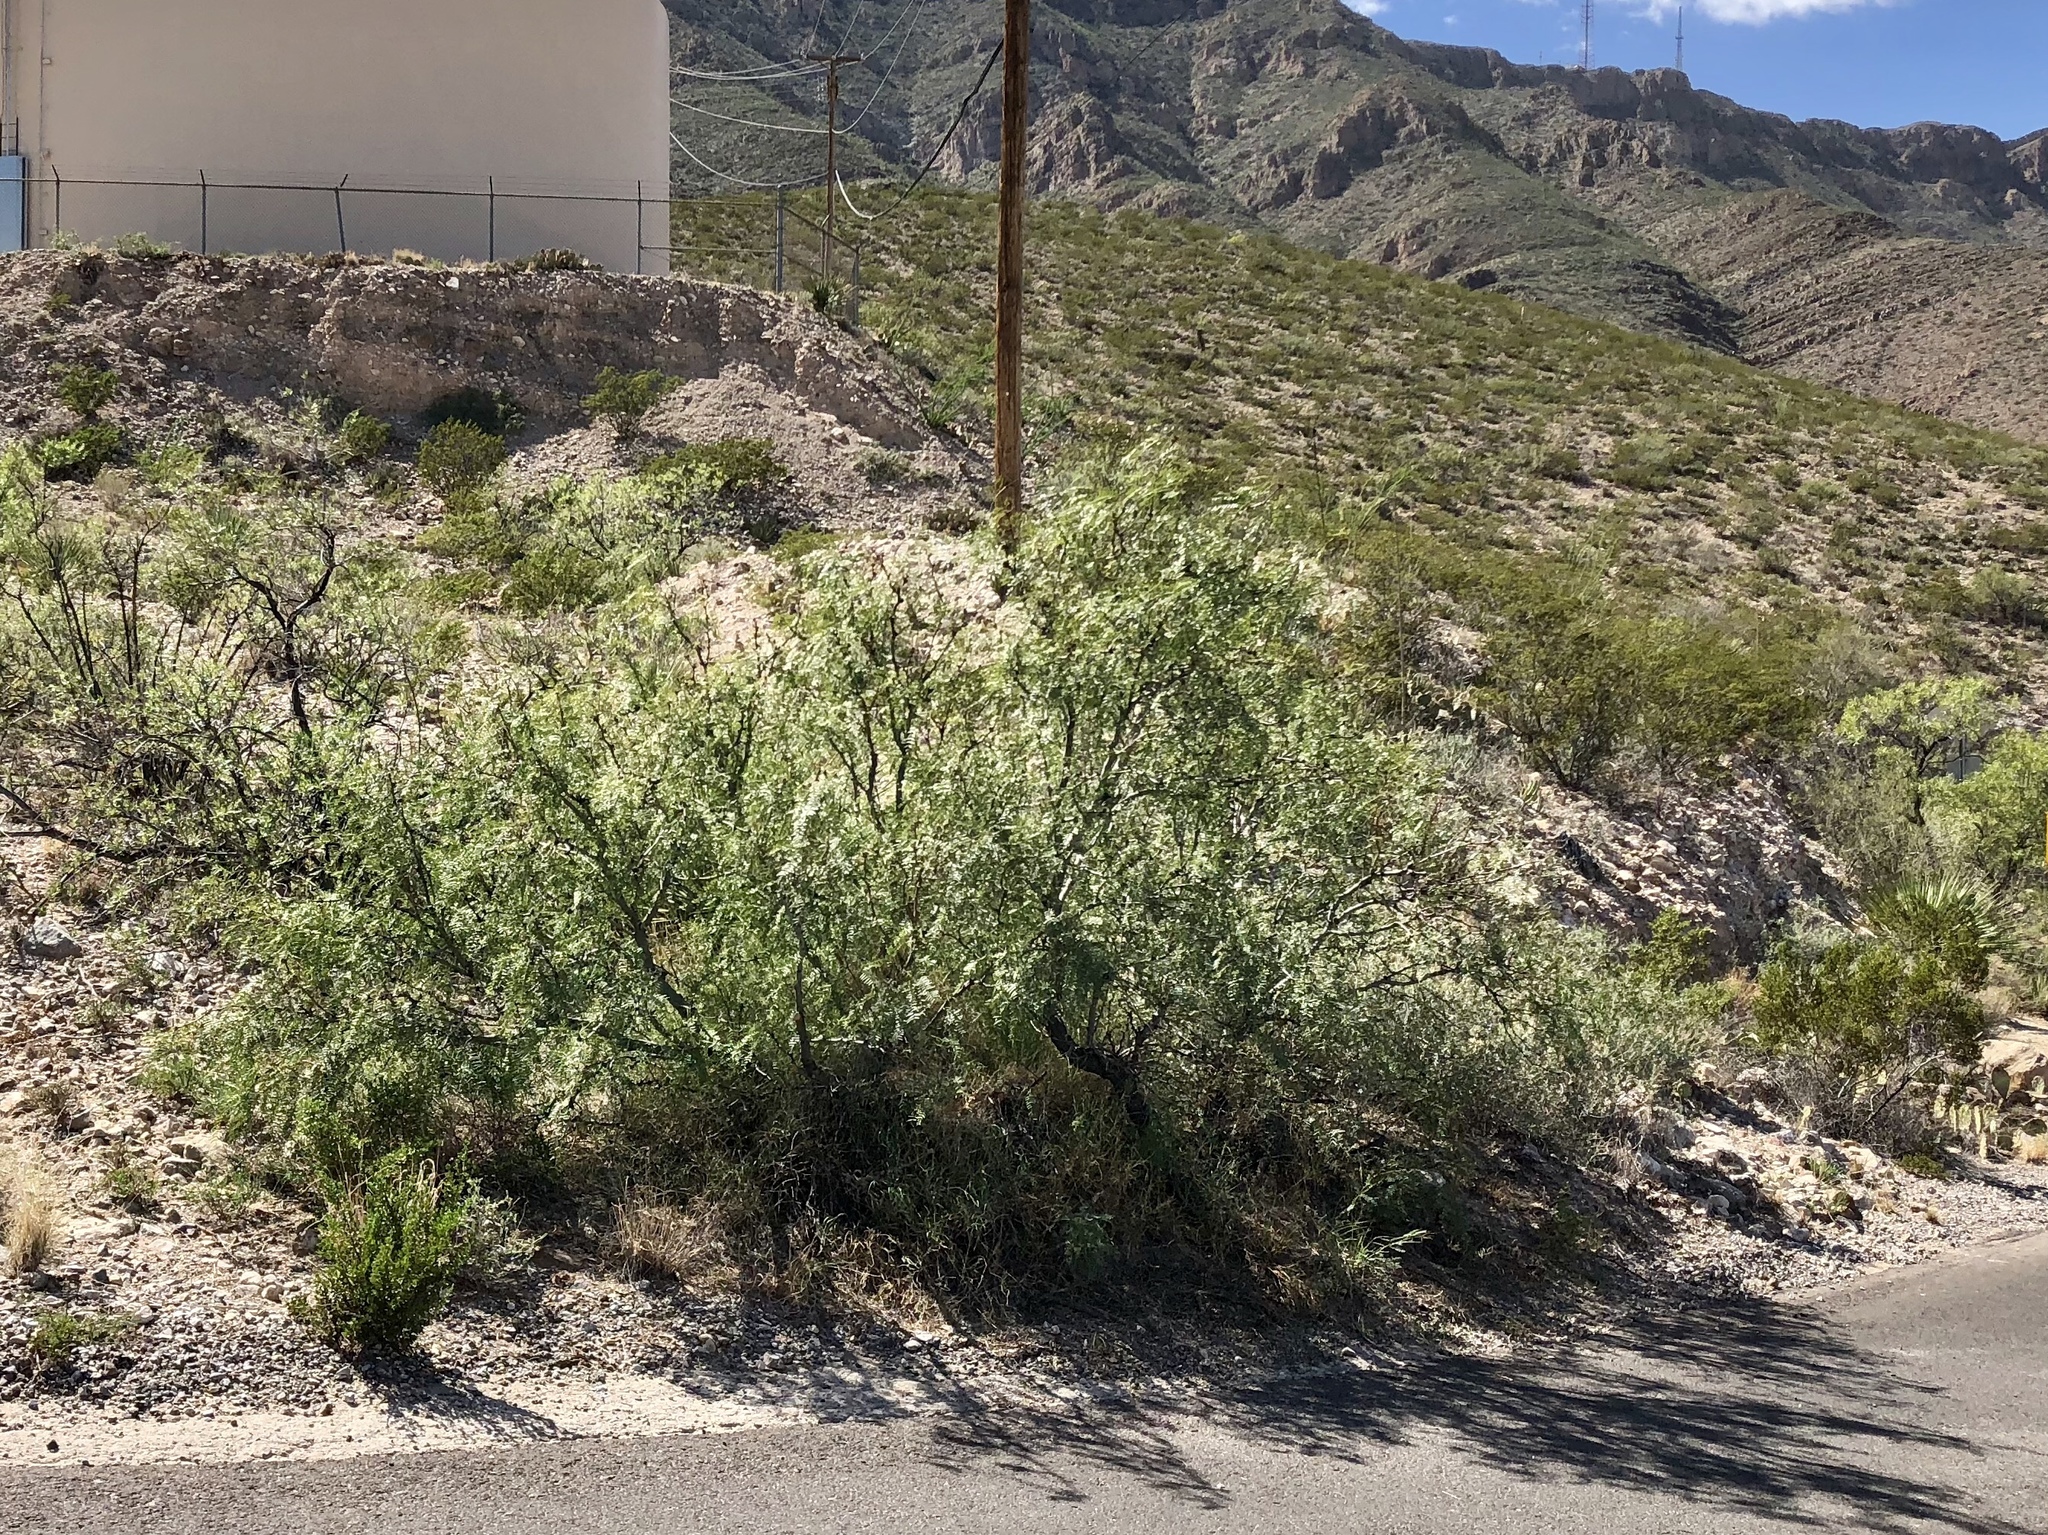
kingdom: Plantae
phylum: Tracheophyta
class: Magnoliopsida
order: Fabales
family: Fabaceae
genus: Prosopis
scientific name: Prosopis glandulosa
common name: Honey mesquite
